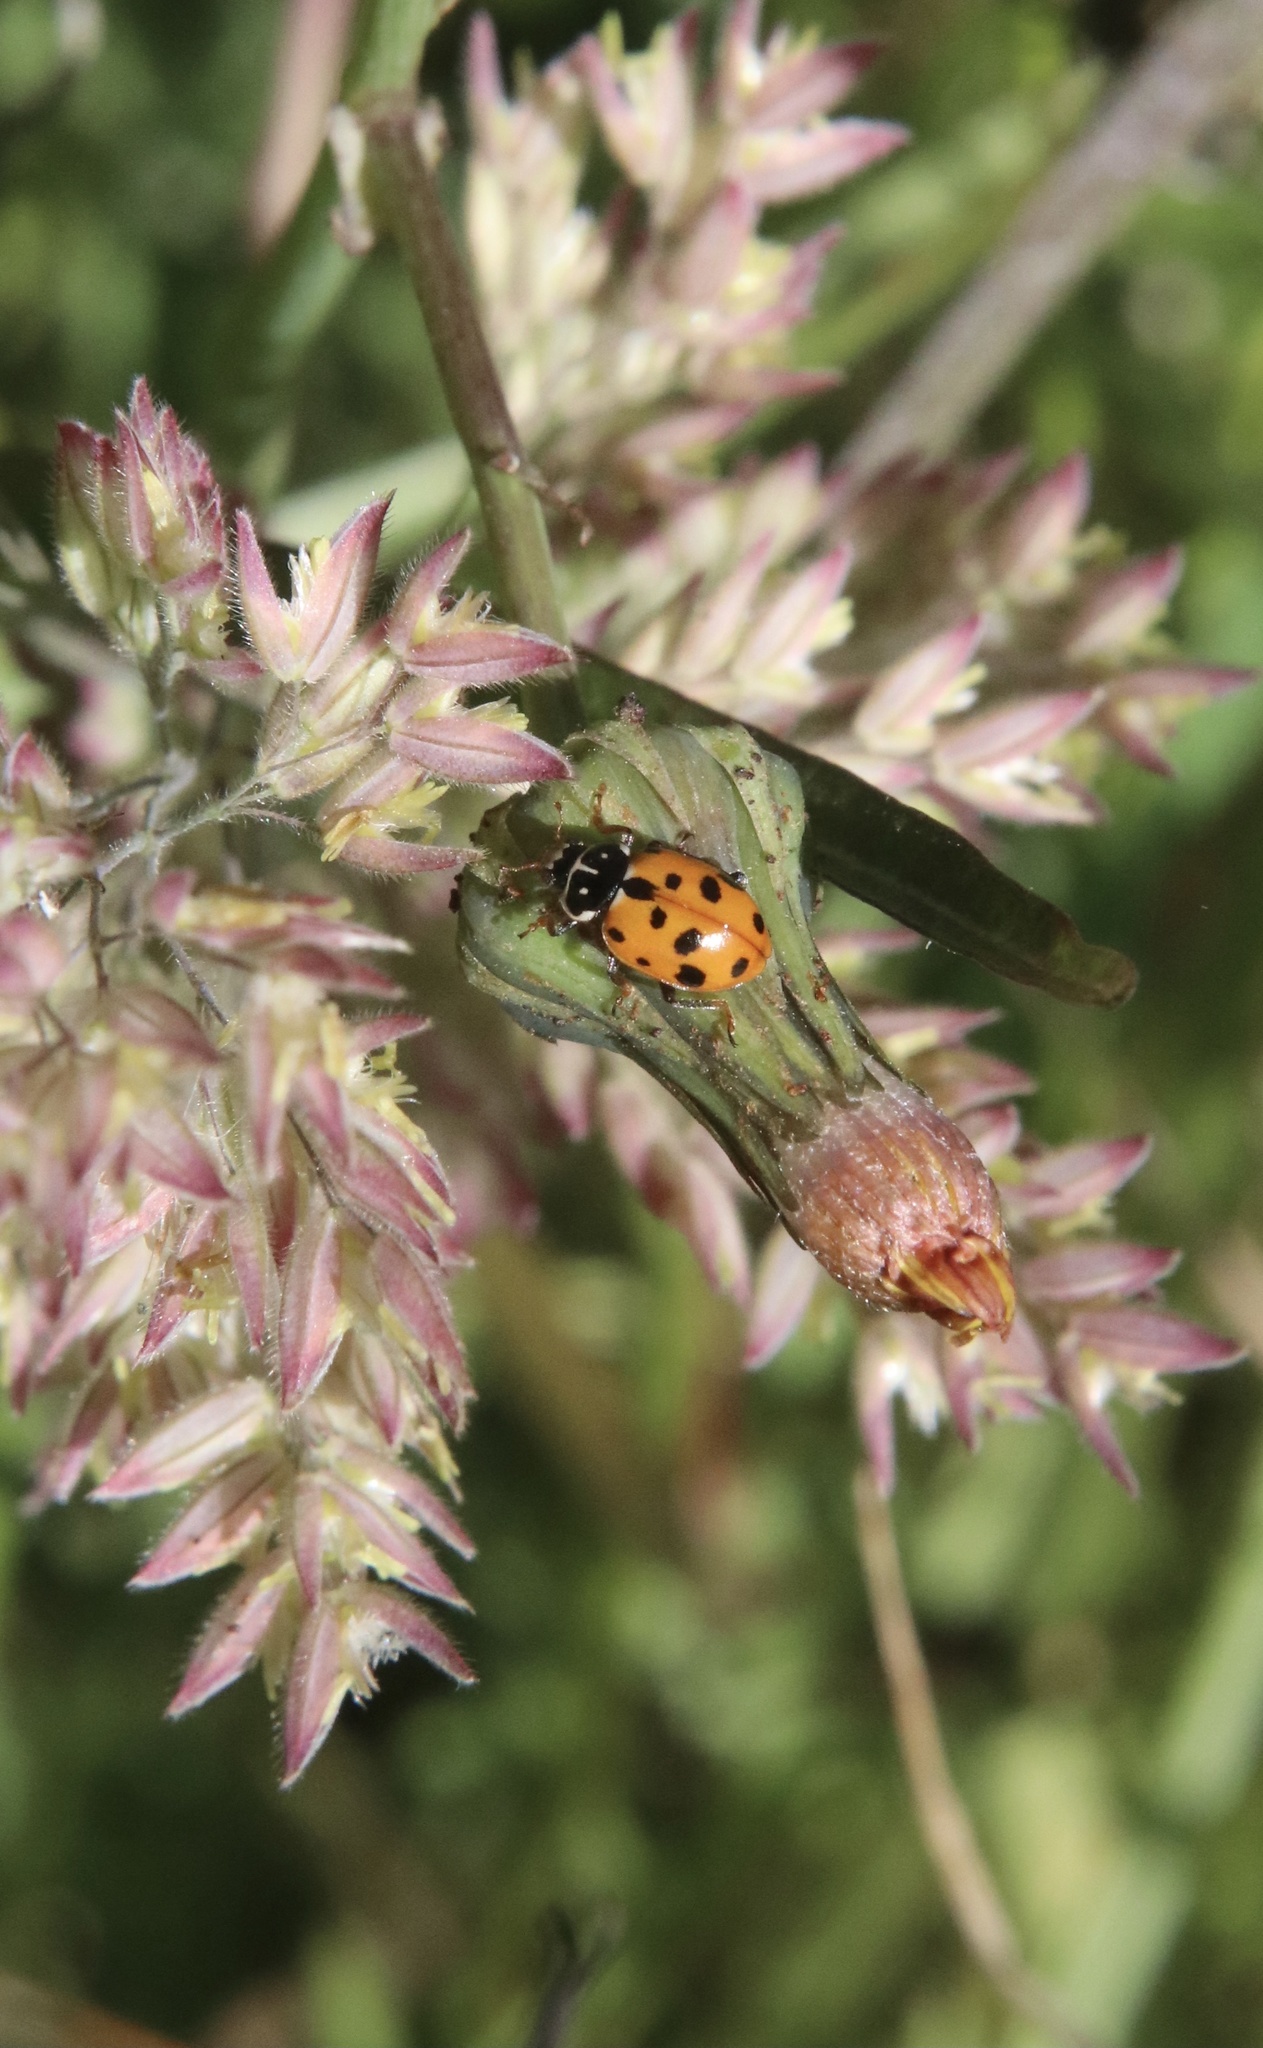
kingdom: Animalia
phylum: Arthropoda
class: Insecta
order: Coleoptera
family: Coccinellidae
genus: Hippodamia
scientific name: Hippodamia variegata
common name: Ladybird beetle
